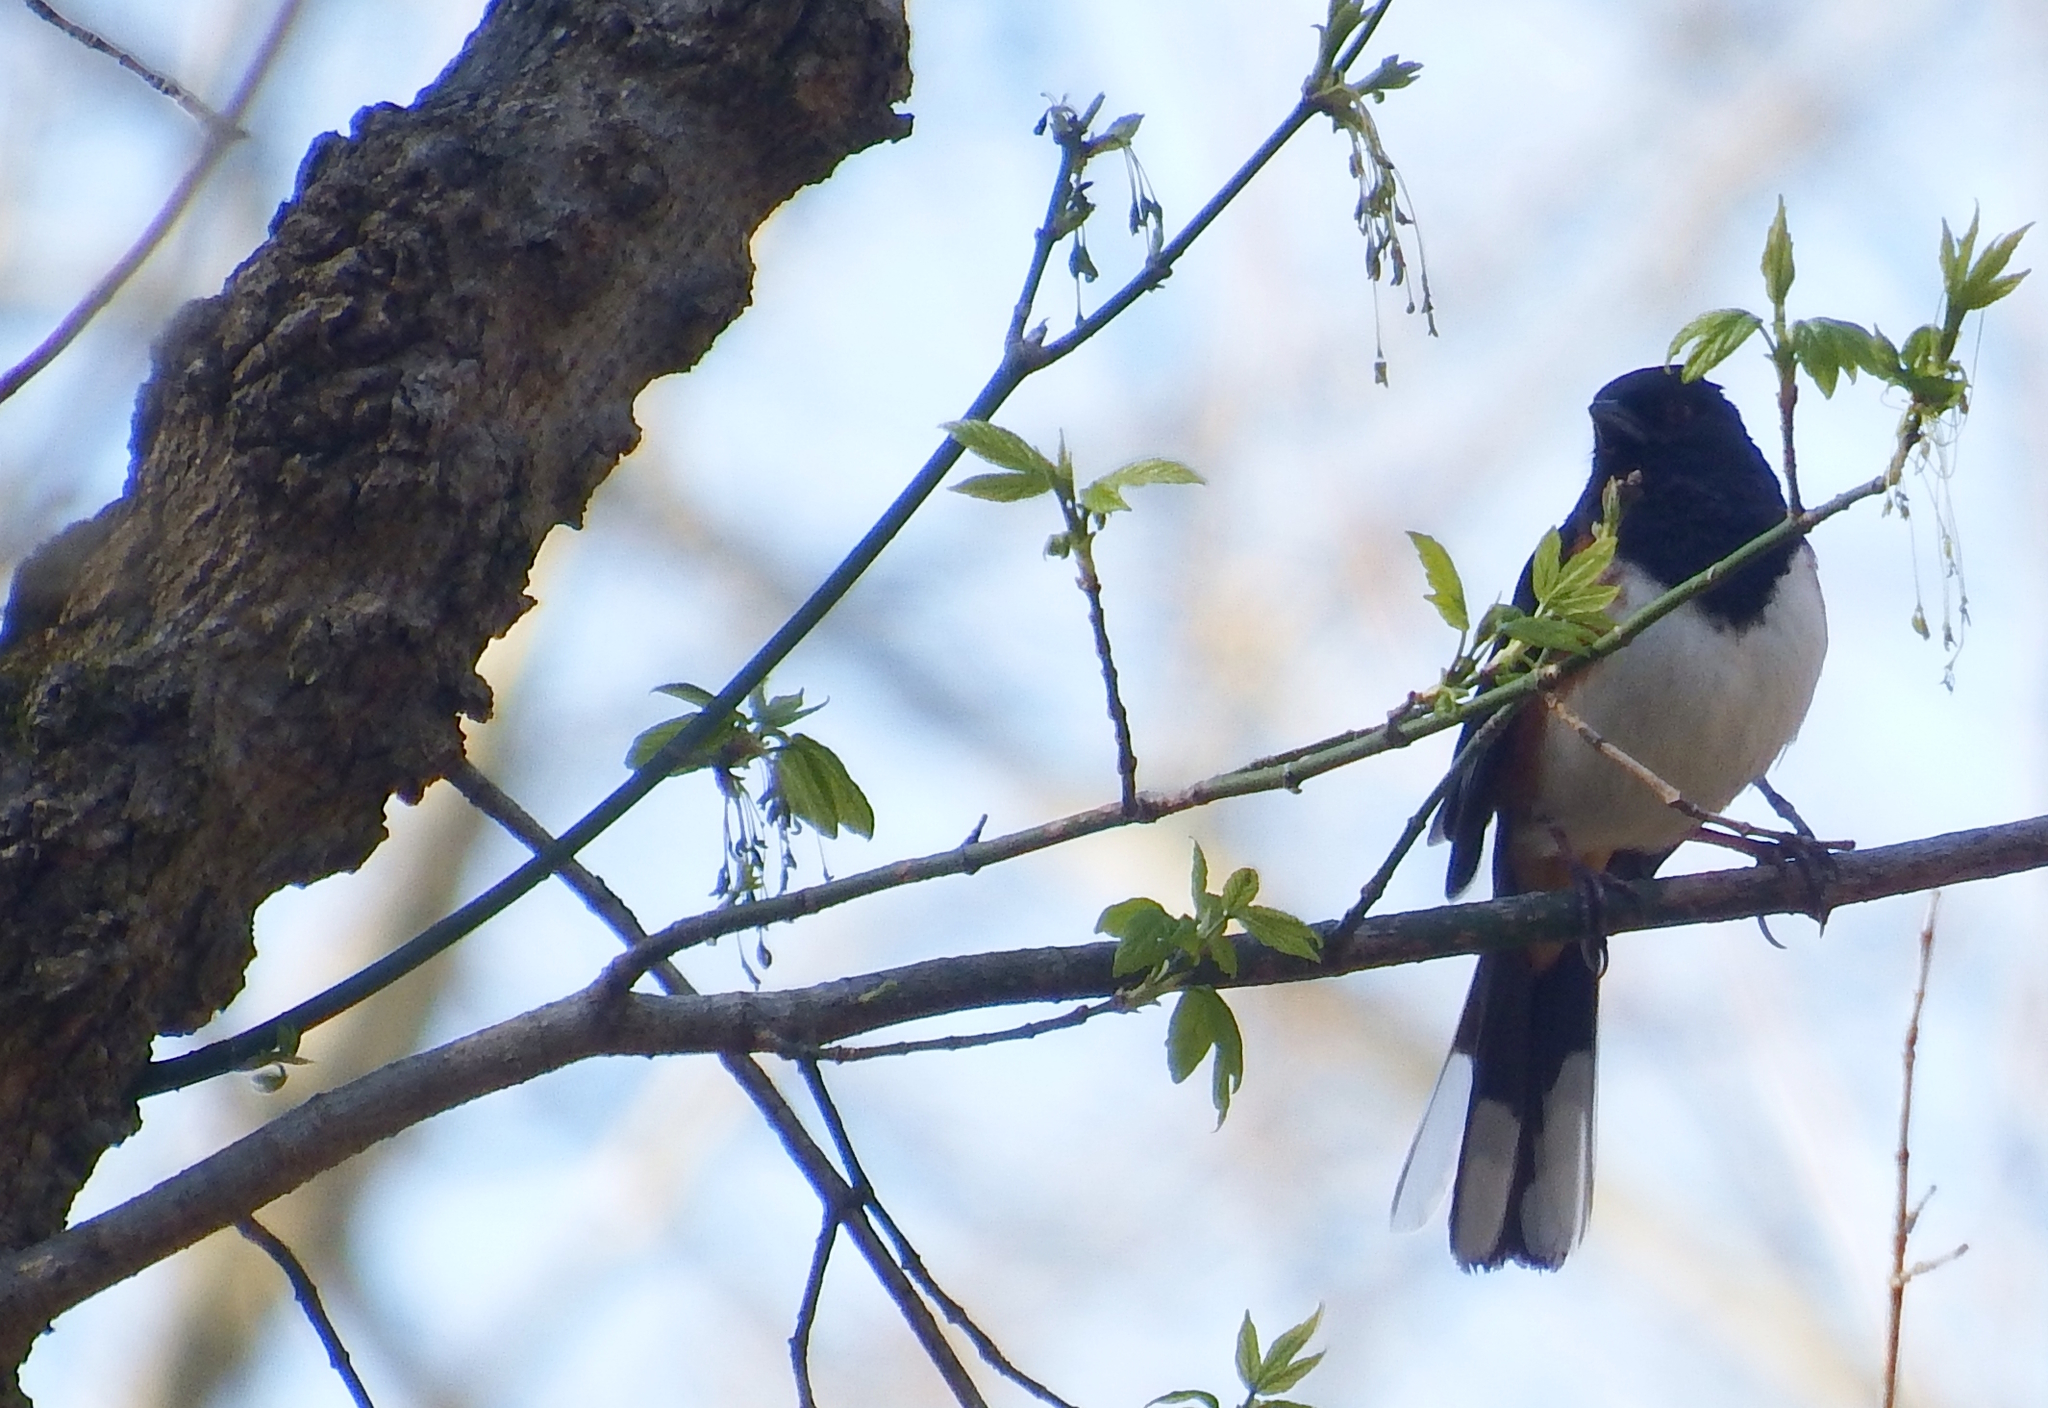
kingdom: Animalia
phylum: Chordata
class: Aves
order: Passeriformes
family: Passerellidae
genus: Pipilo
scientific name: Pipilo erythrophthalmus
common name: Eastern towhee
